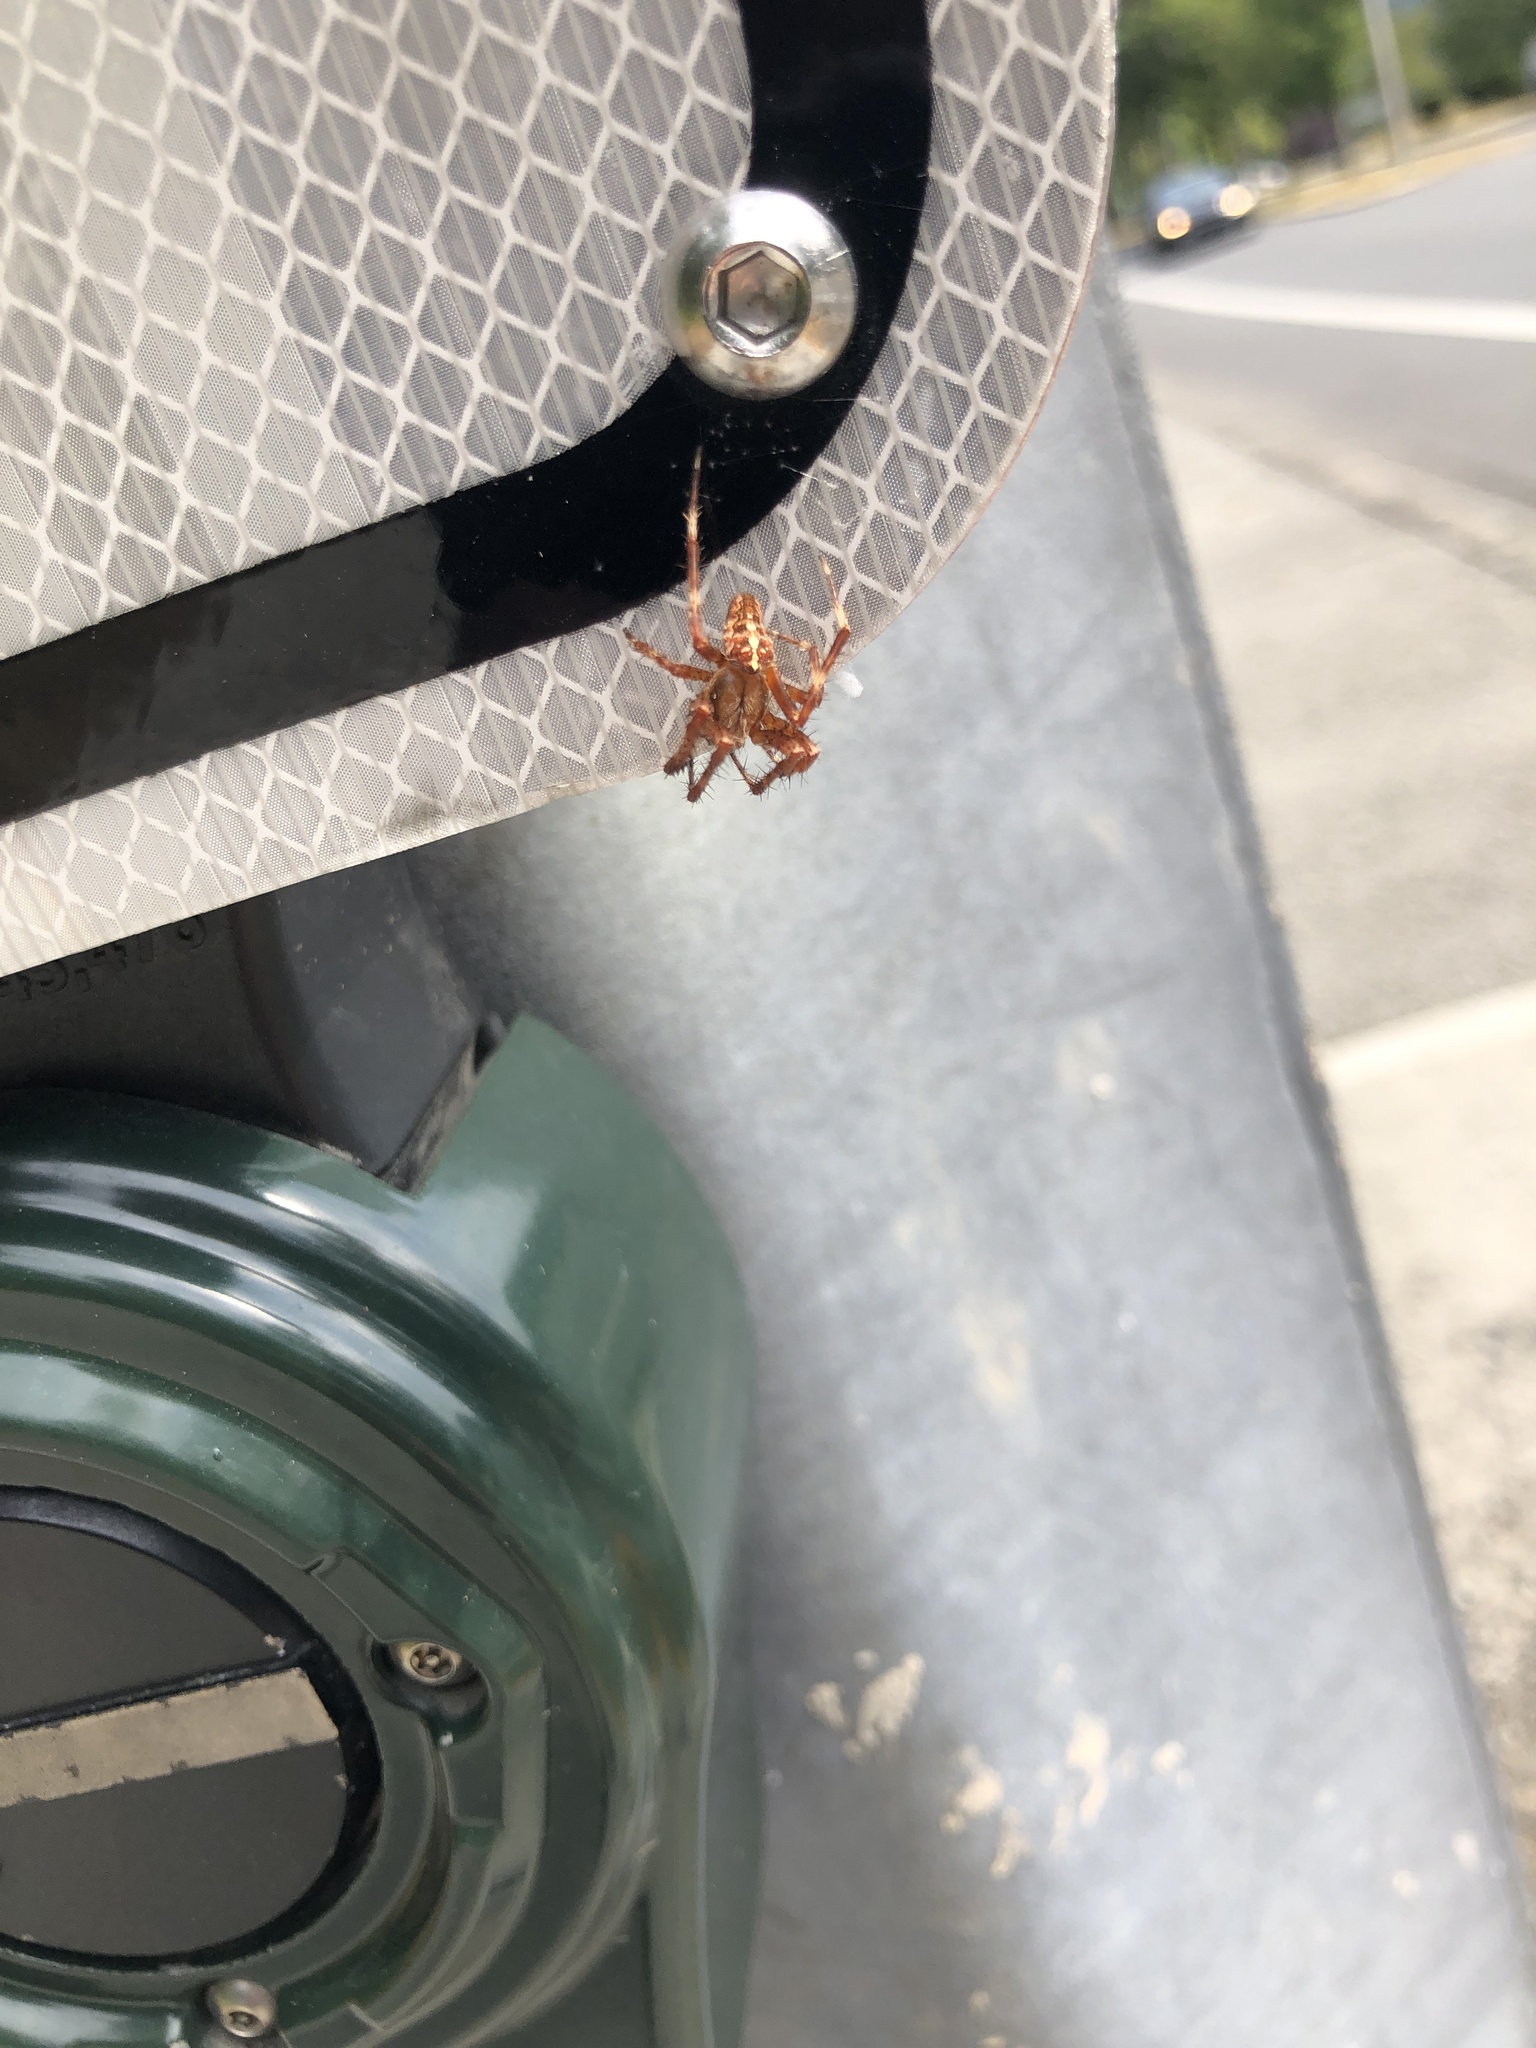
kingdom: Animalia
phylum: Arthropoda
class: Arachnida
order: Araneae
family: Araneidae
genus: Araneus
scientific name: Araneus diadematus
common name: Cross orbweaver
